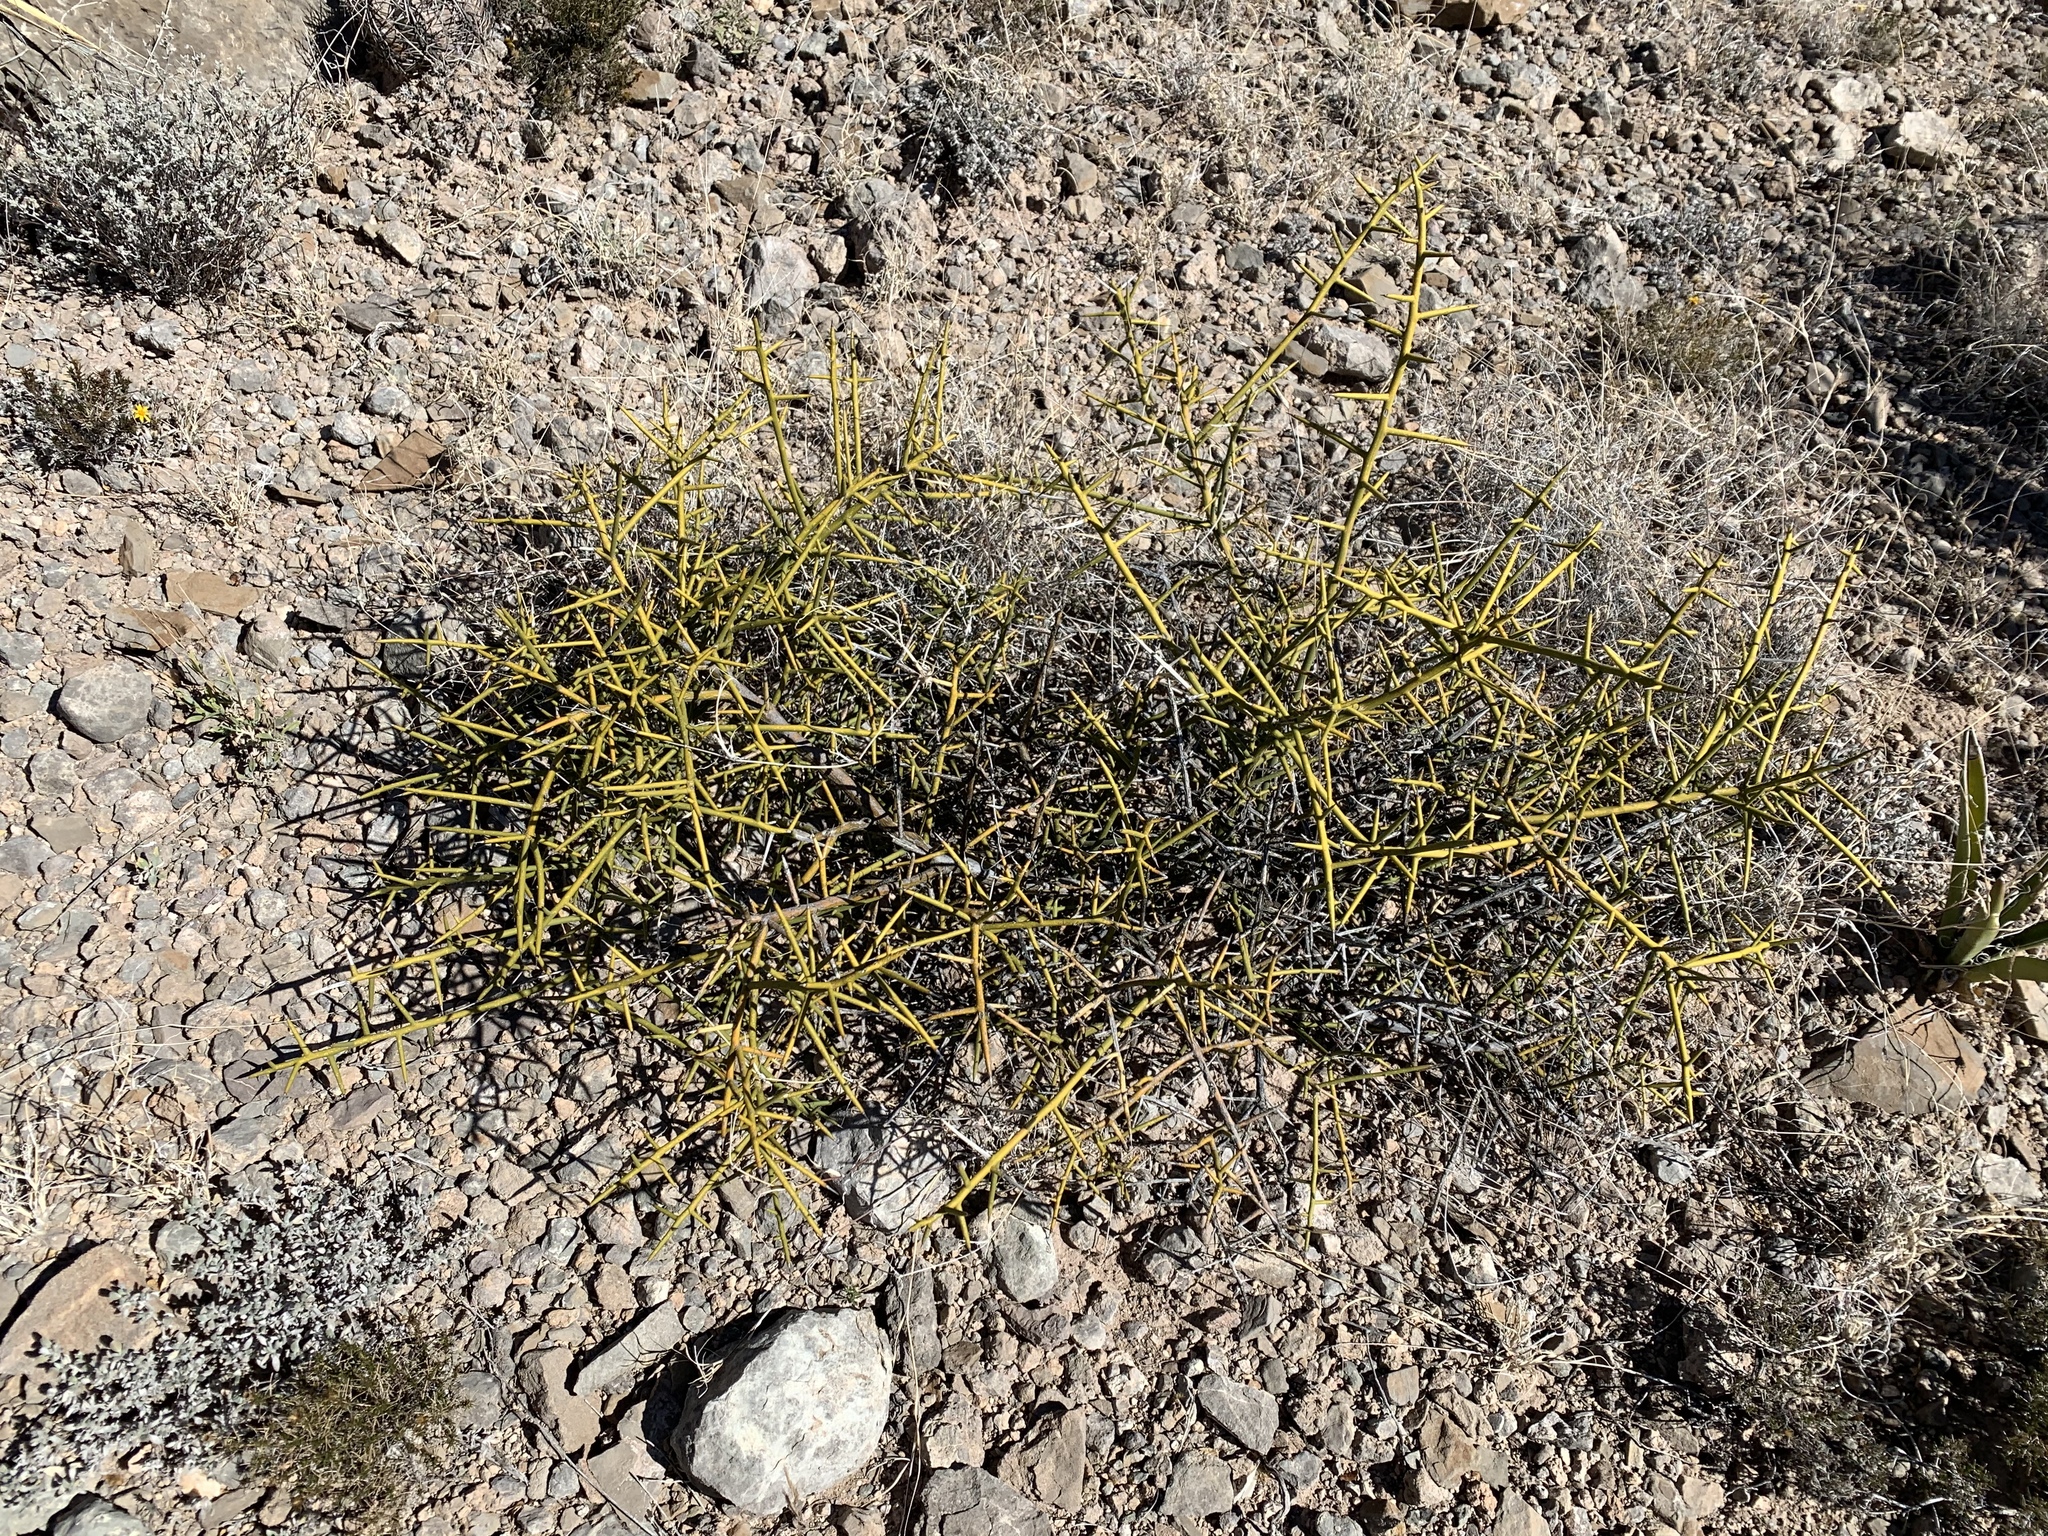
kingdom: Plantae
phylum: Tracheophyta
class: Magnoliopsida
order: Brassicales
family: Koeberliniaceae
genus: Koeberlinia
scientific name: Koeberlinia spinosa
